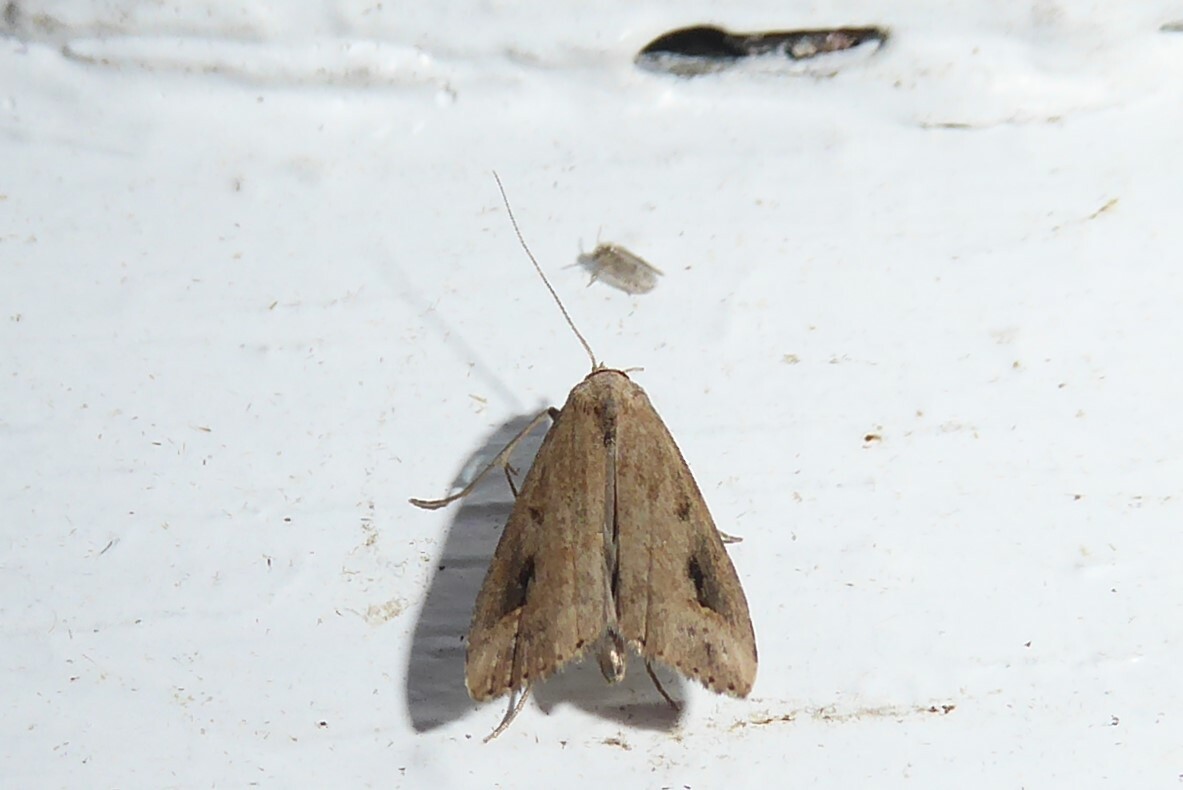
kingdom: Animalia
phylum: Arthropoda
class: Insecta
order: Lepidoptera
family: Erebidae
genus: Schrankia
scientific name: Schrankia costaestrigalis
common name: Pinion-streaked snout
